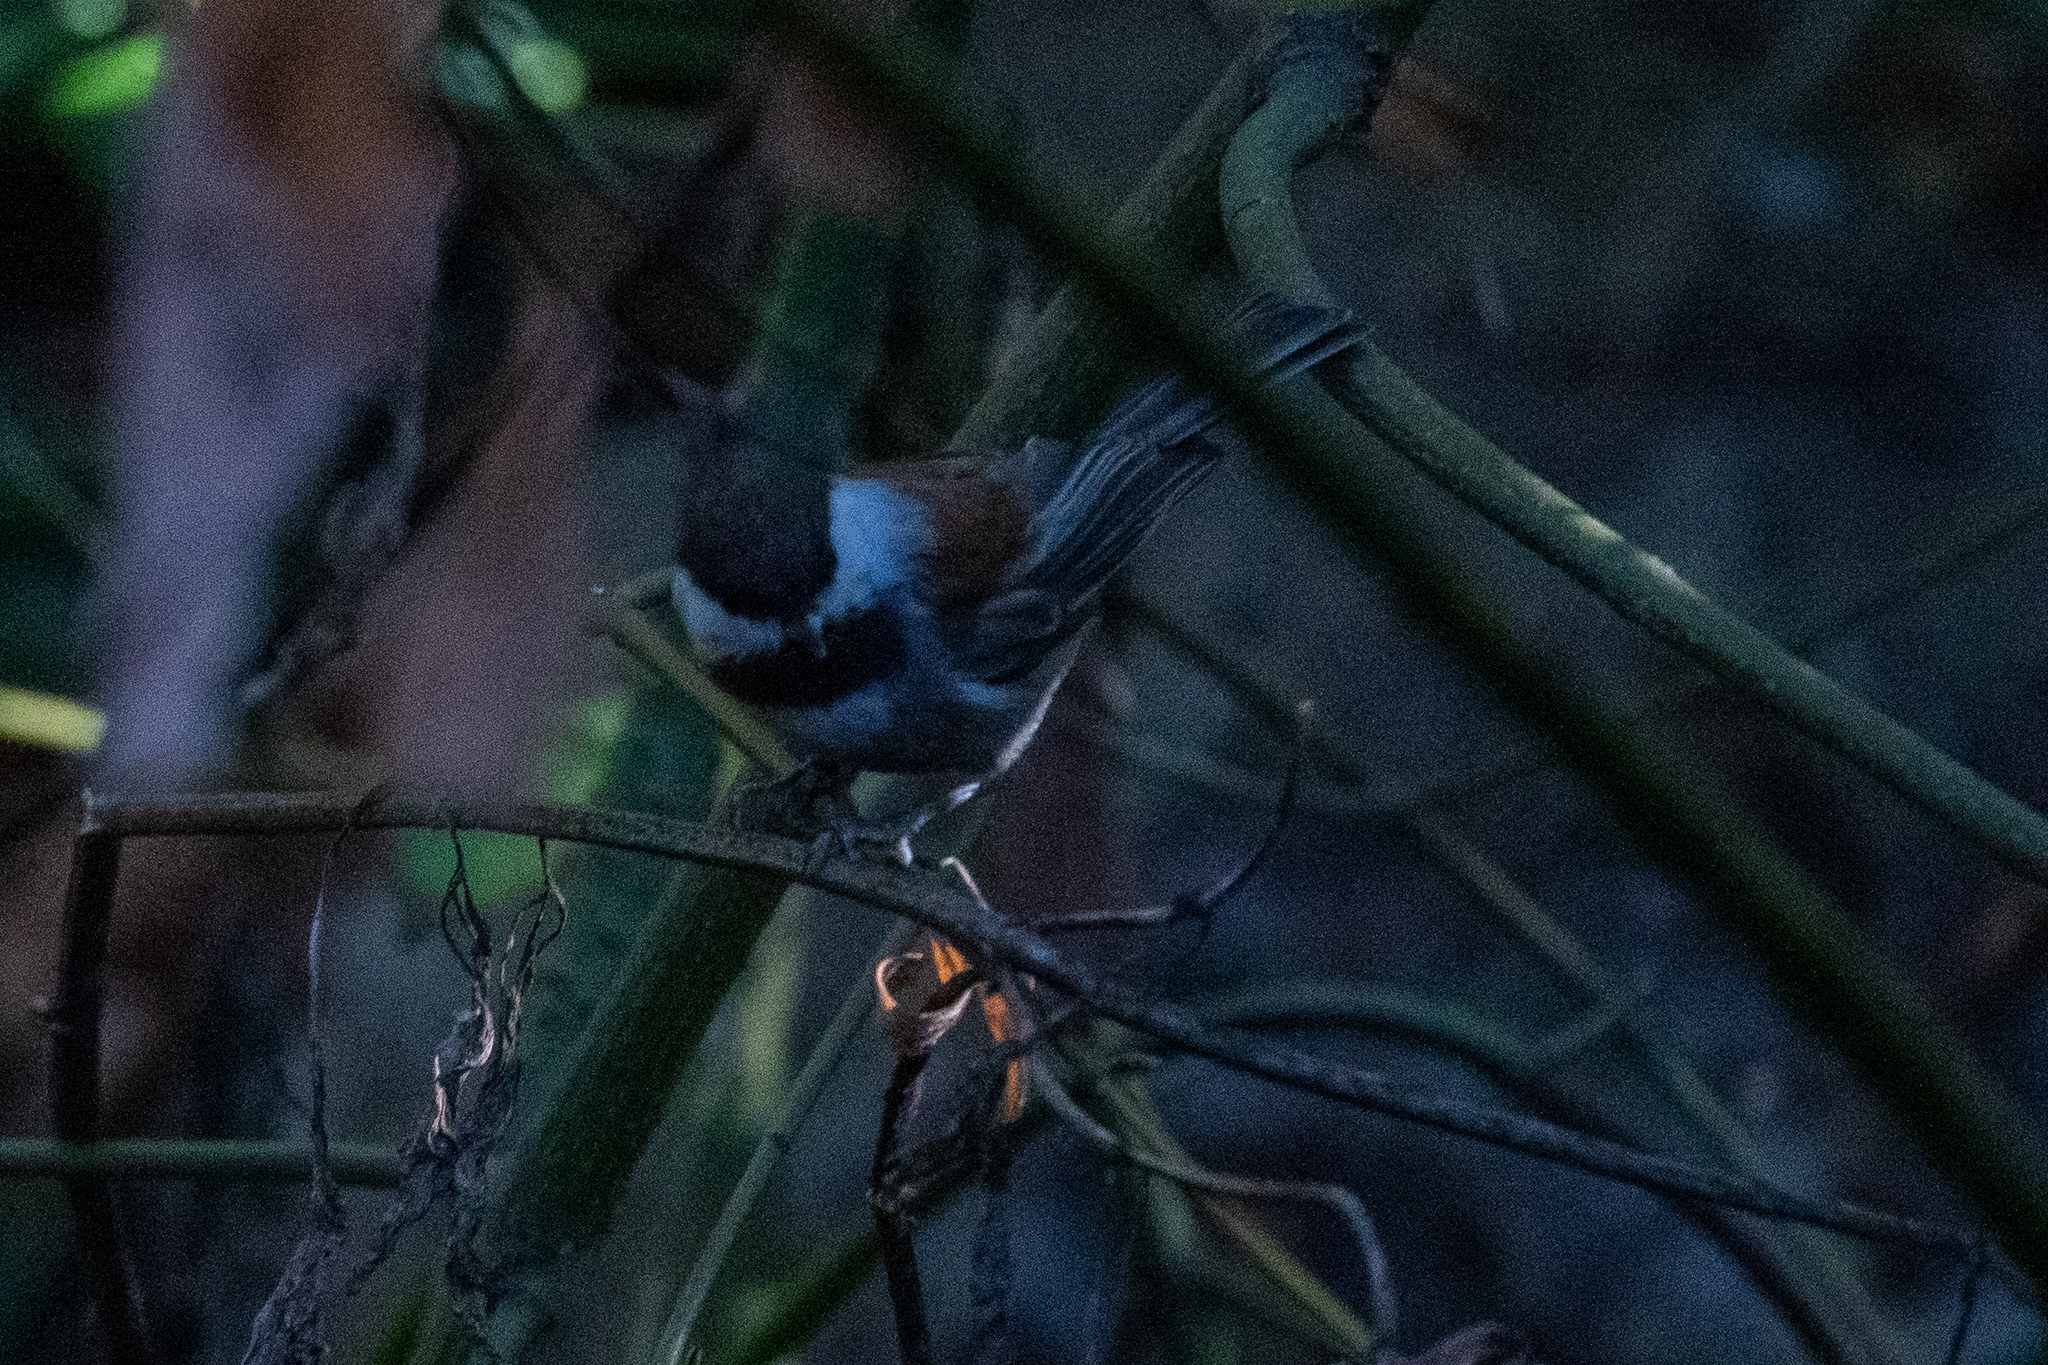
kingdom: Animalia
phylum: Chordata
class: Aves
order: Passeriformes
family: Paridae
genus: Poecile
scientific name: Poecile rufescens
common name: Chestnut-backed chickadee
